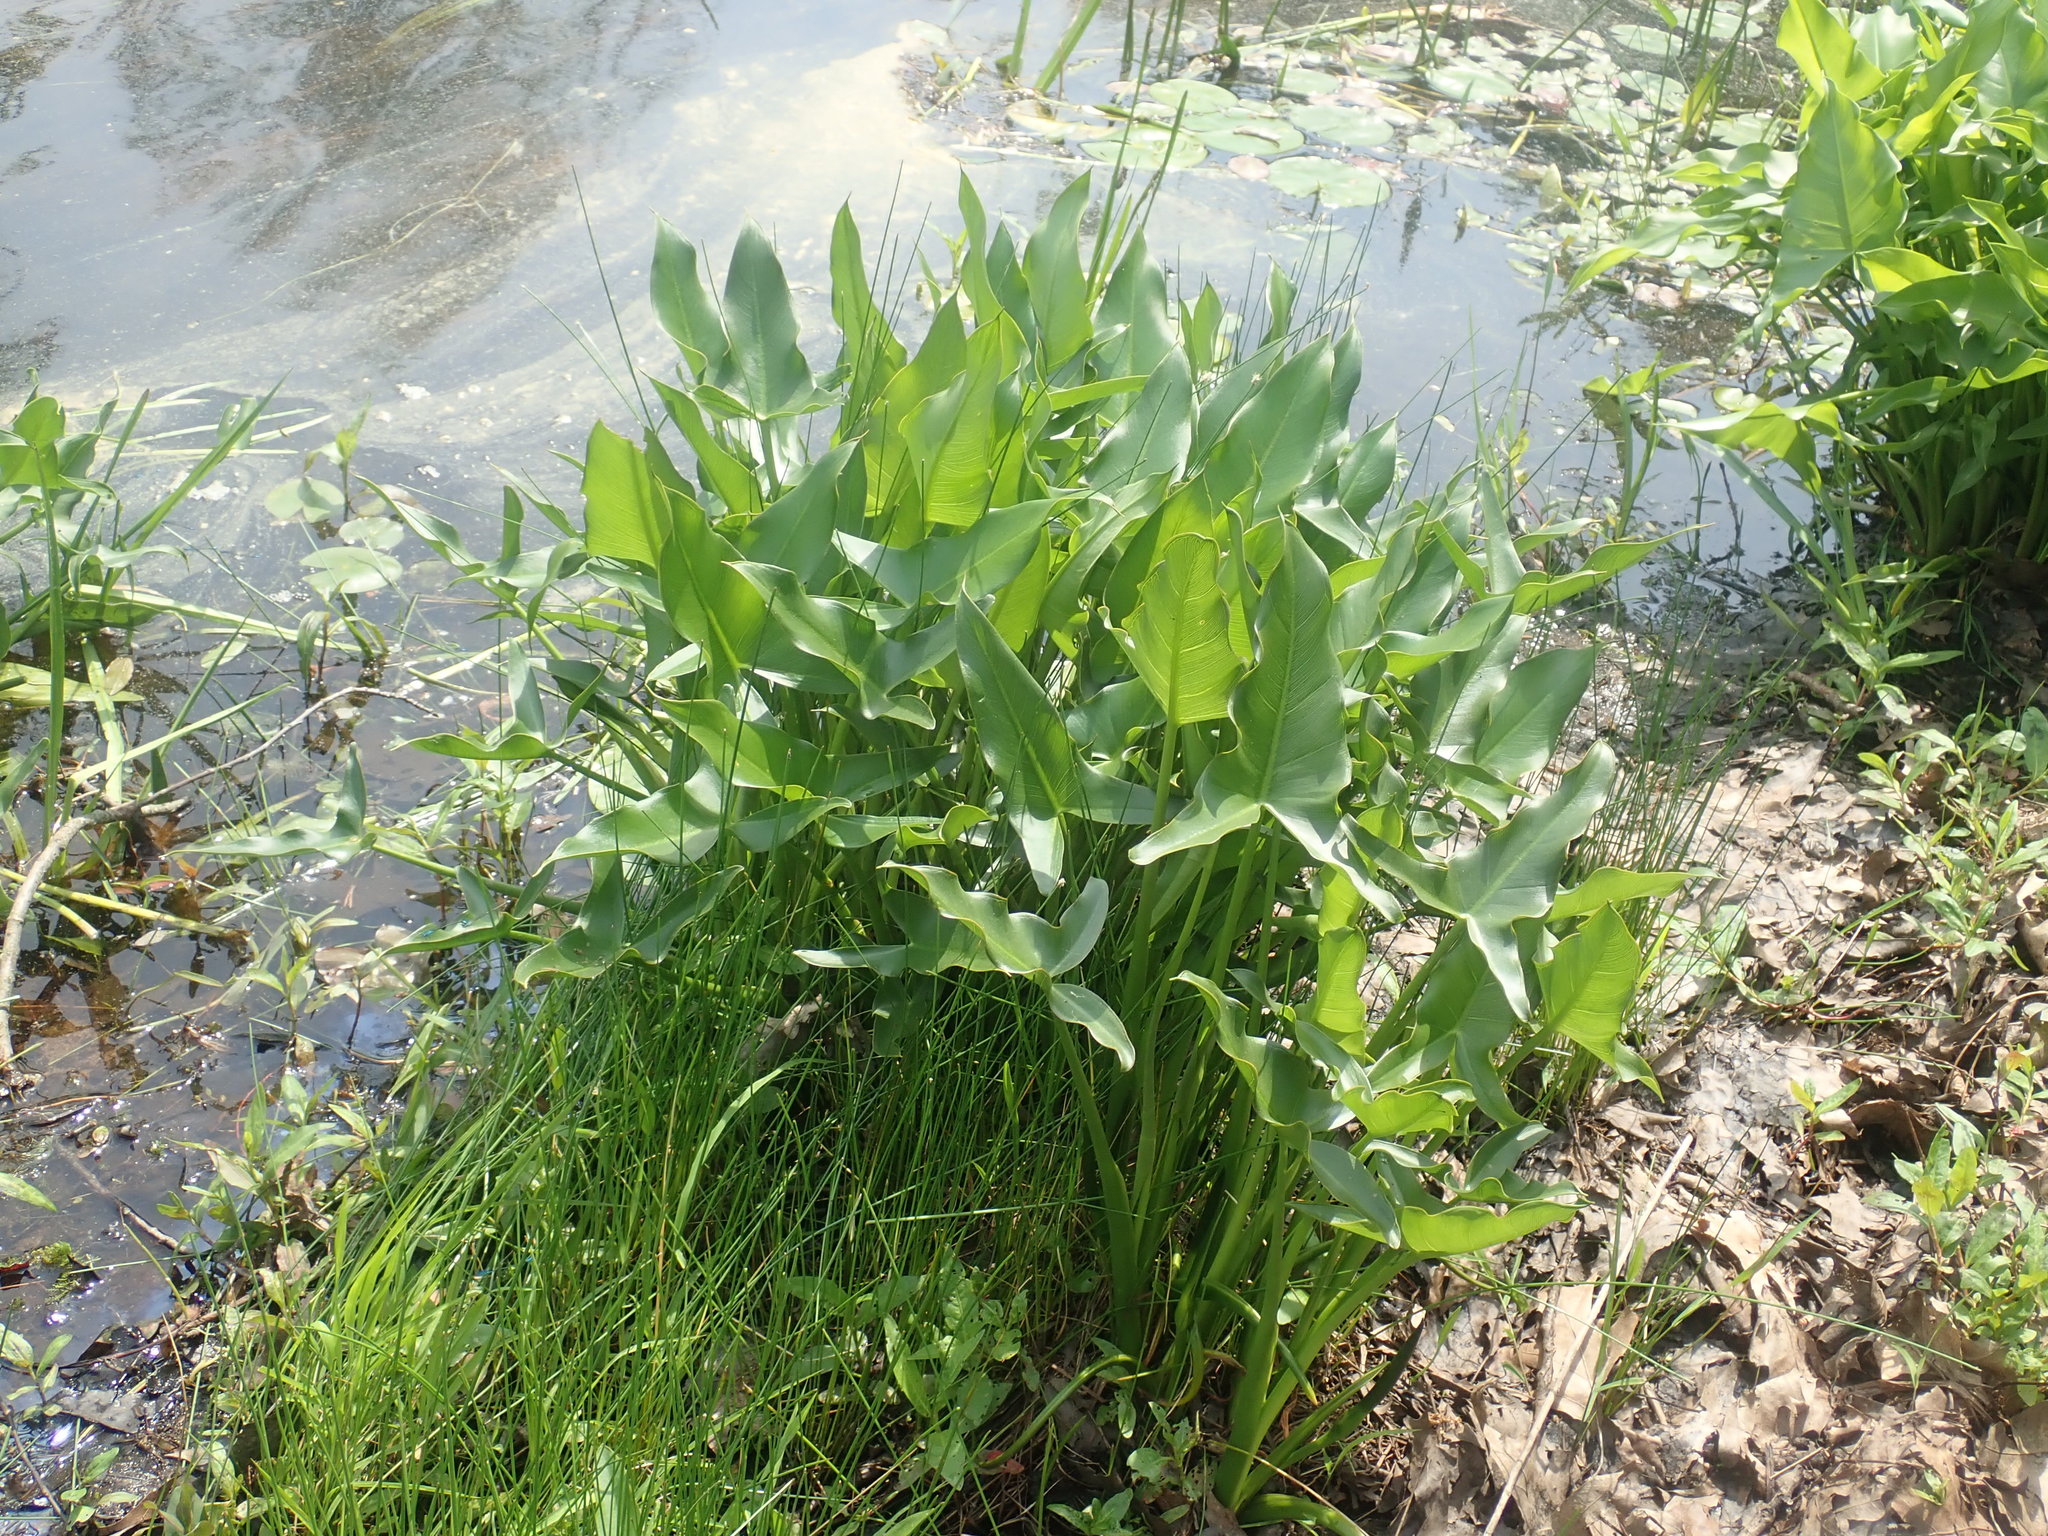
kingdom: Plantae
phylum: Tracheophyta
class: Liliopsida
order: Alismatales
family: Araceae
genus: Peltandra
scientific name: Peltandra virginica
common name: Arrow arum
